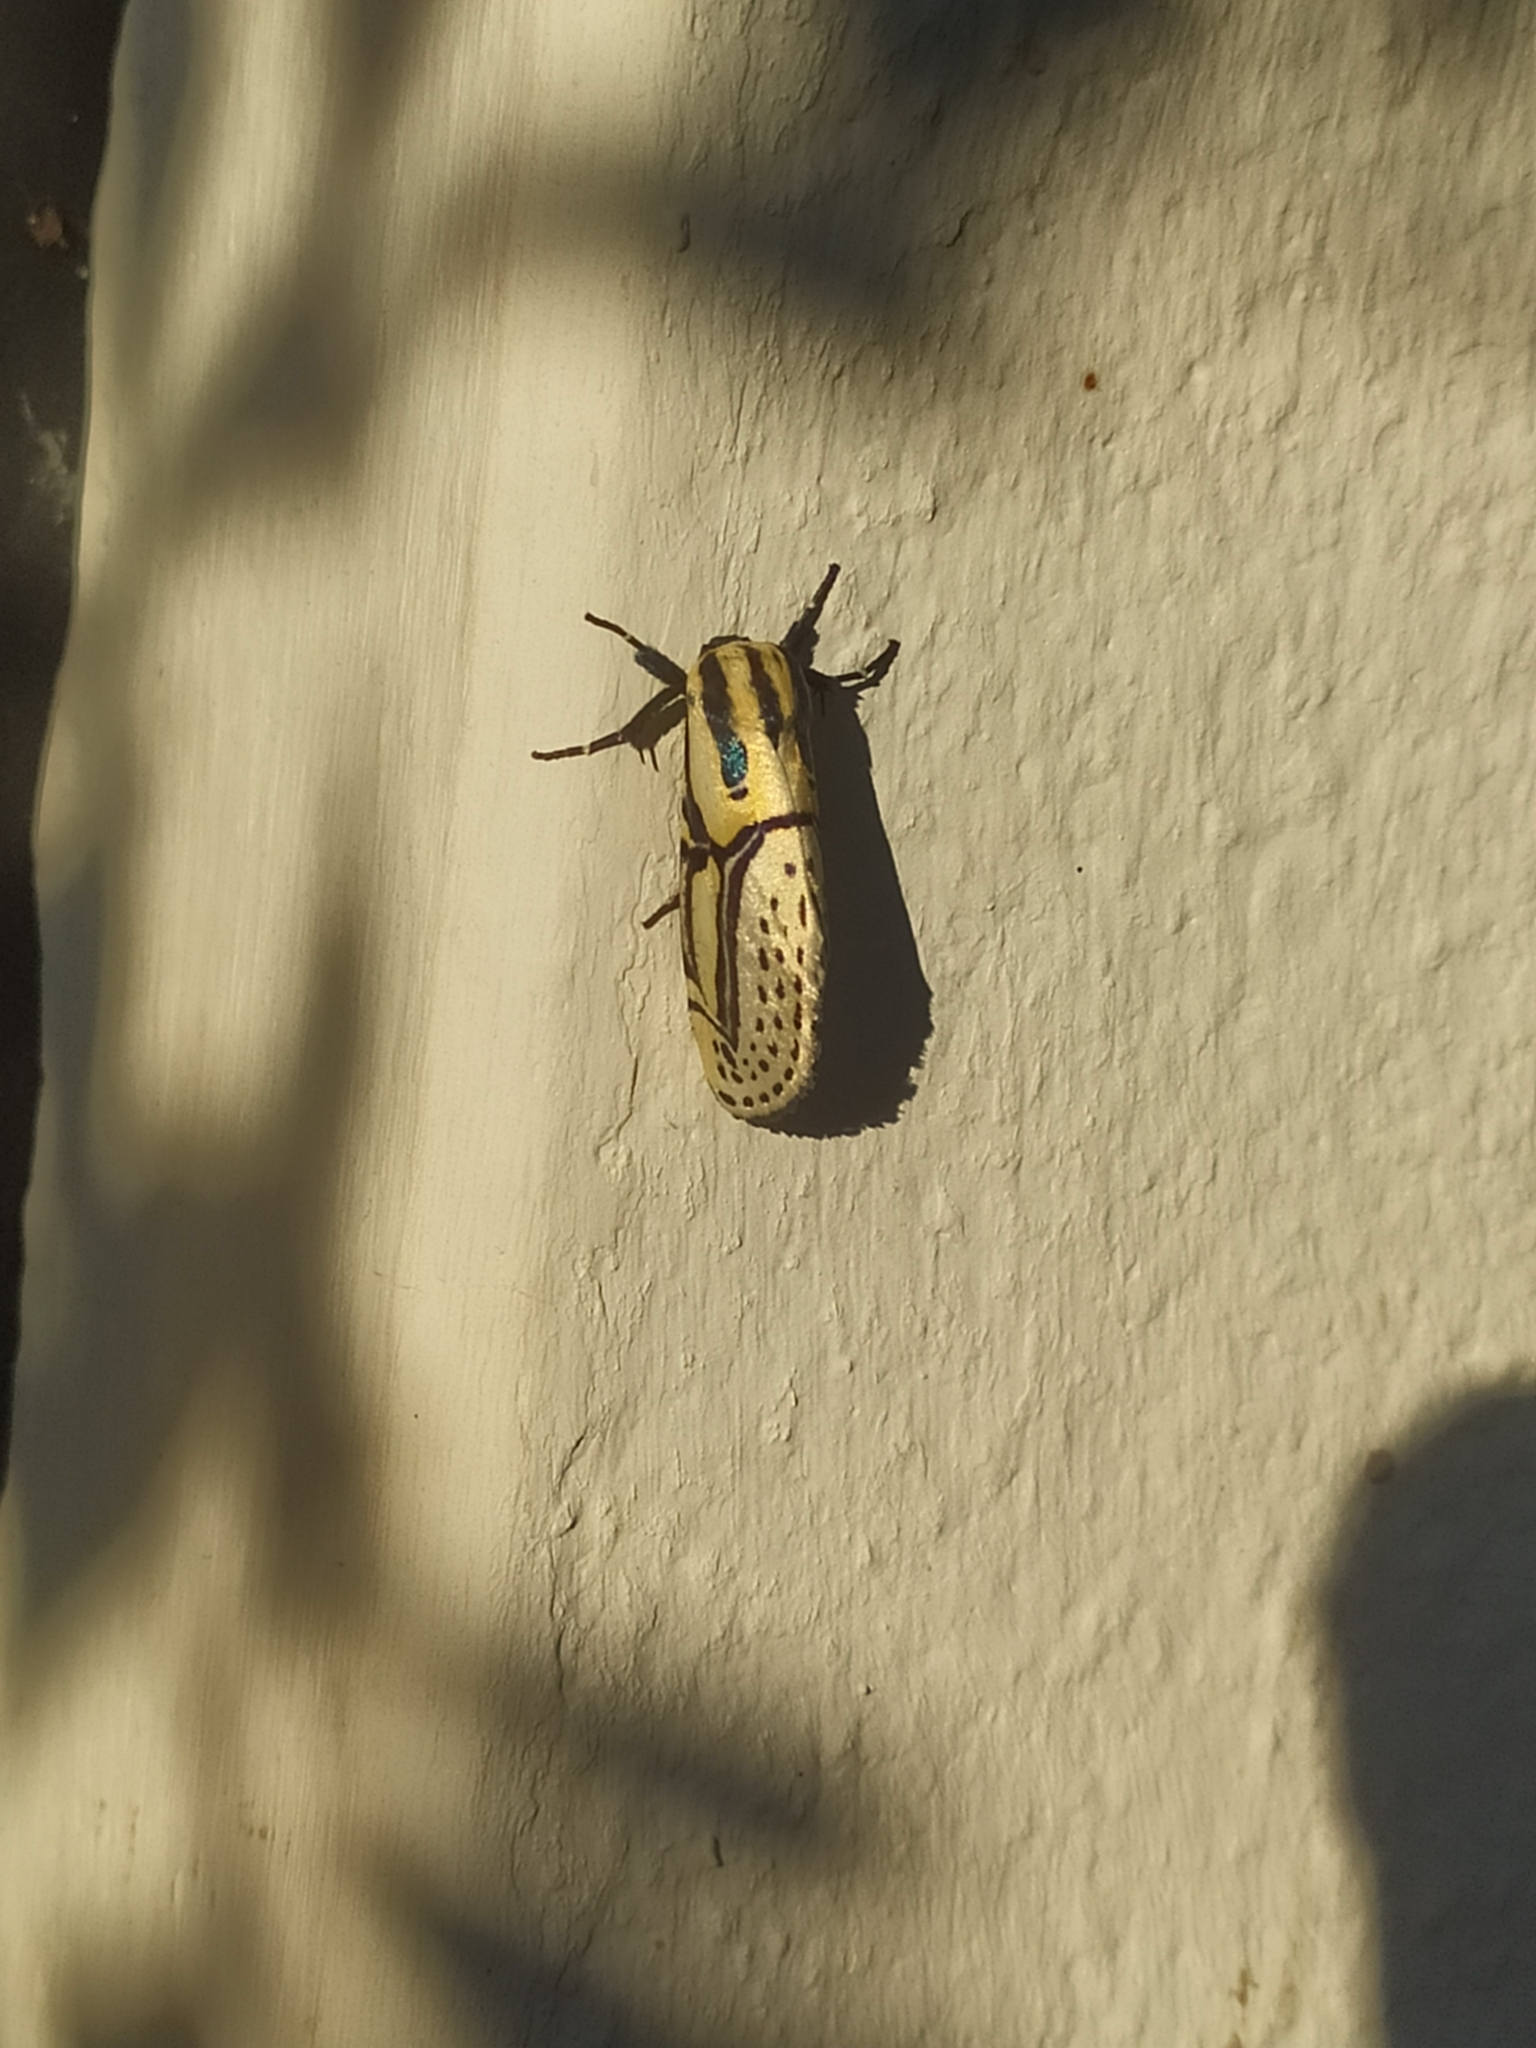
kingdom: Animalia
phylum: Arthropoda
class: Insecta
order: Lepidoptera
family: Erebidae
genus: Diphthera
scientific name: Diphthera festiva
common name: Hieroglyphic moth
